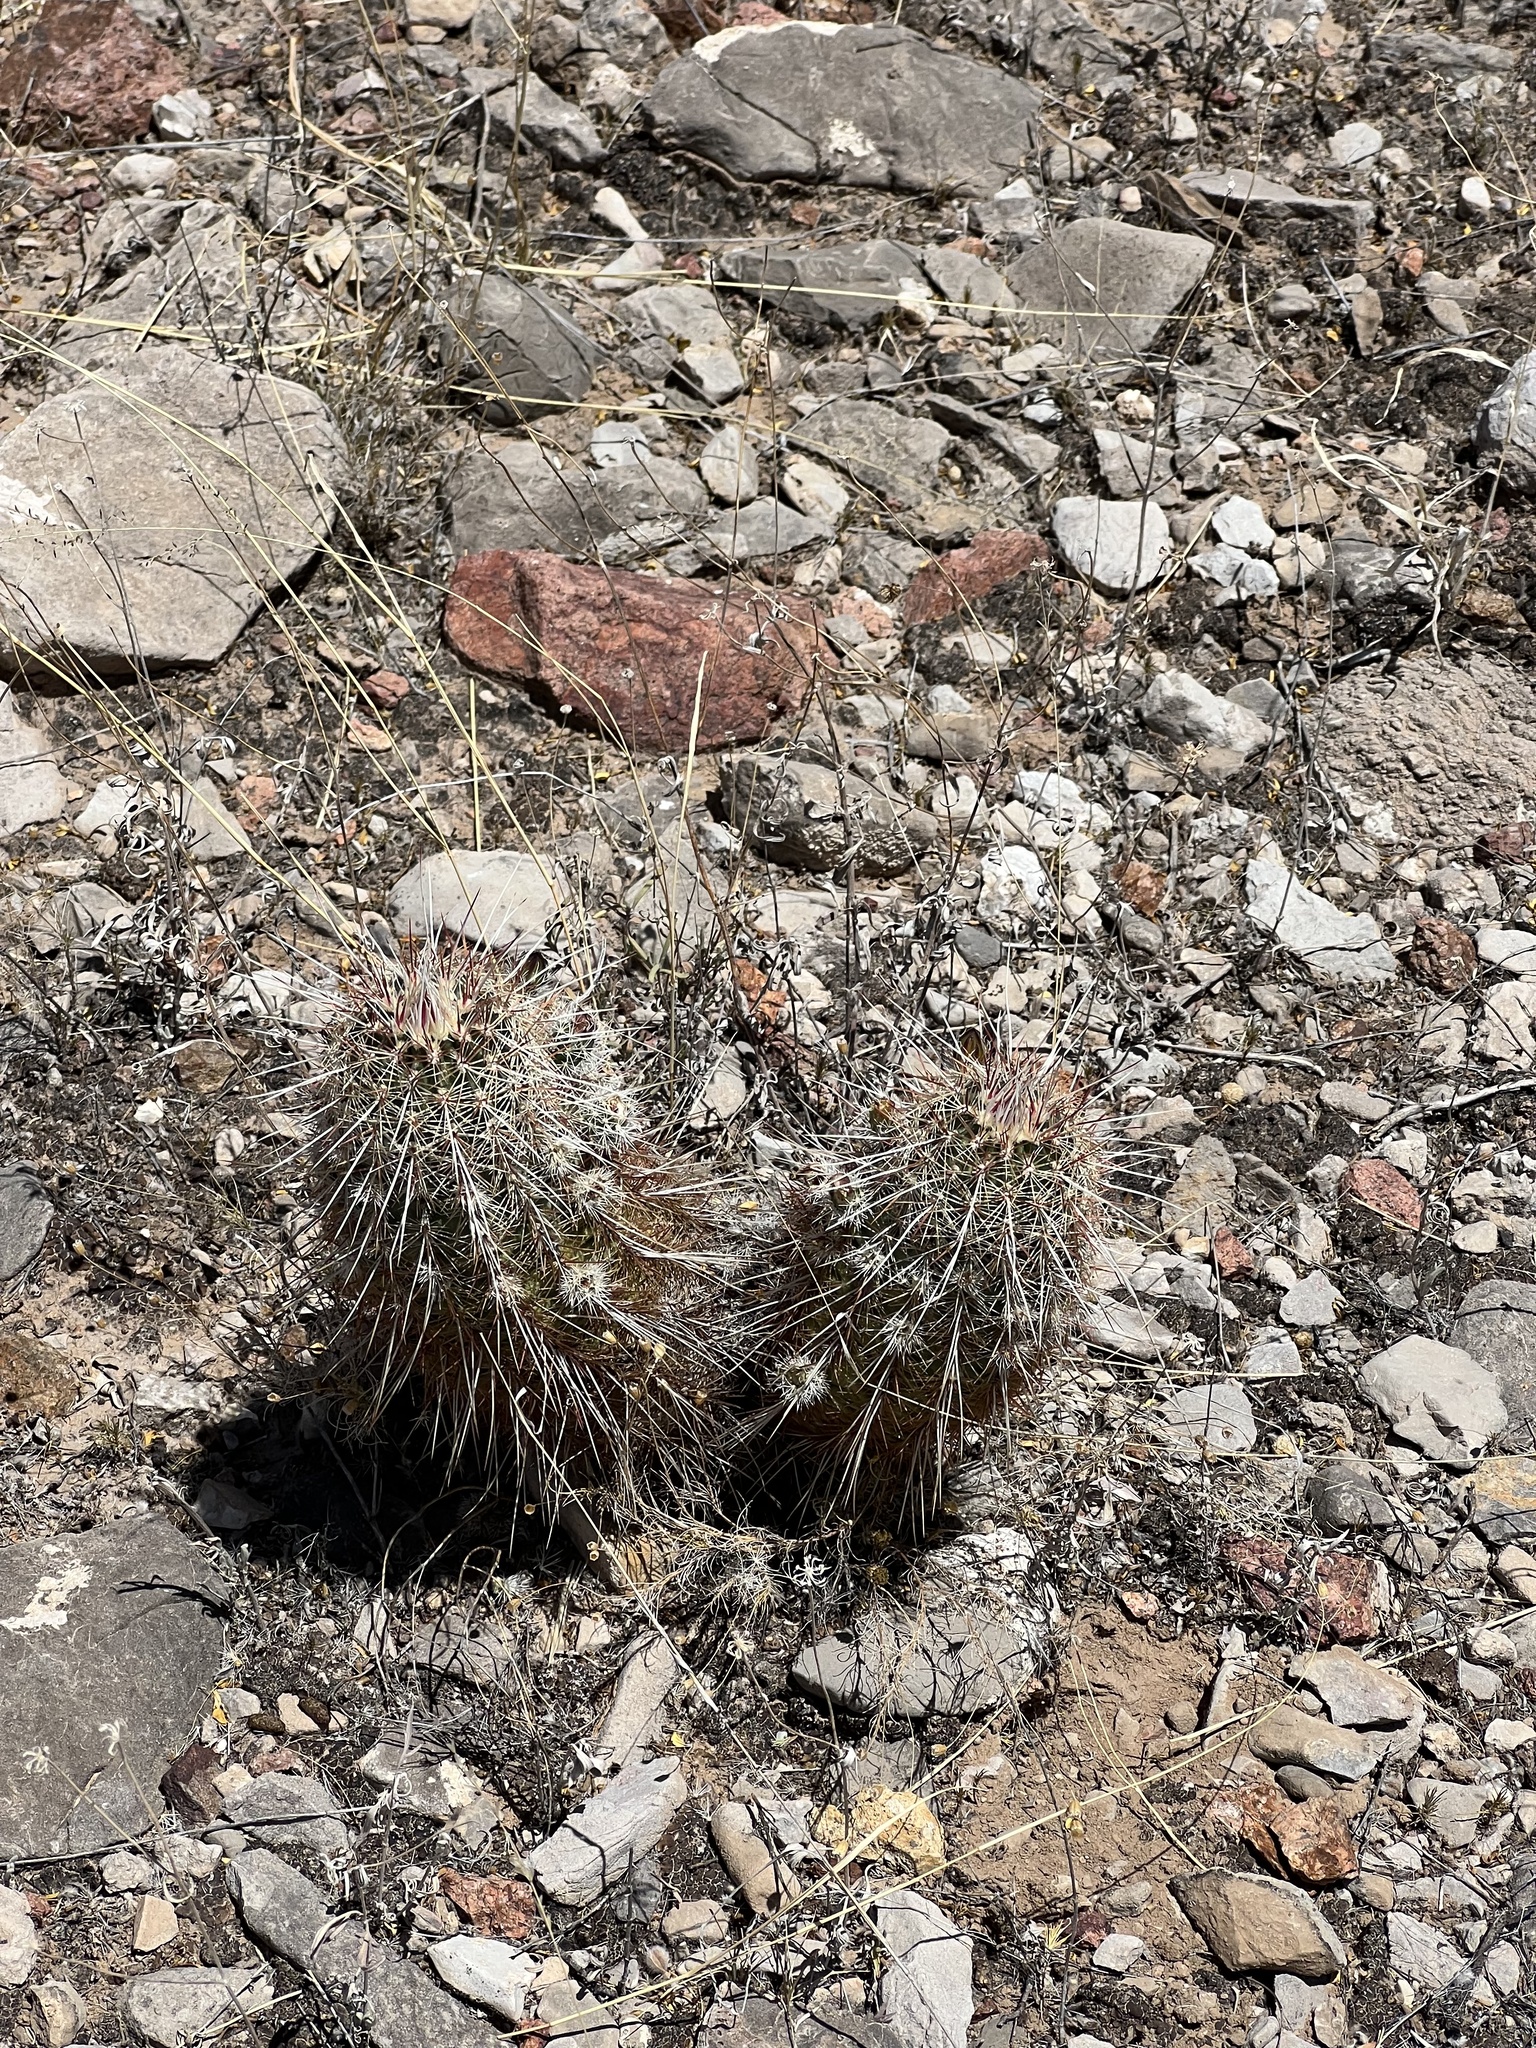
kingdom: Plantae
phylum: Tracheophyta
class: Magnoliopsida
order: Caryophyllales
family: Cactaceae
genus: Echinocereus
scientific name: Echinocereus viridiflorus
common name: Nylon hedgehog cactus
